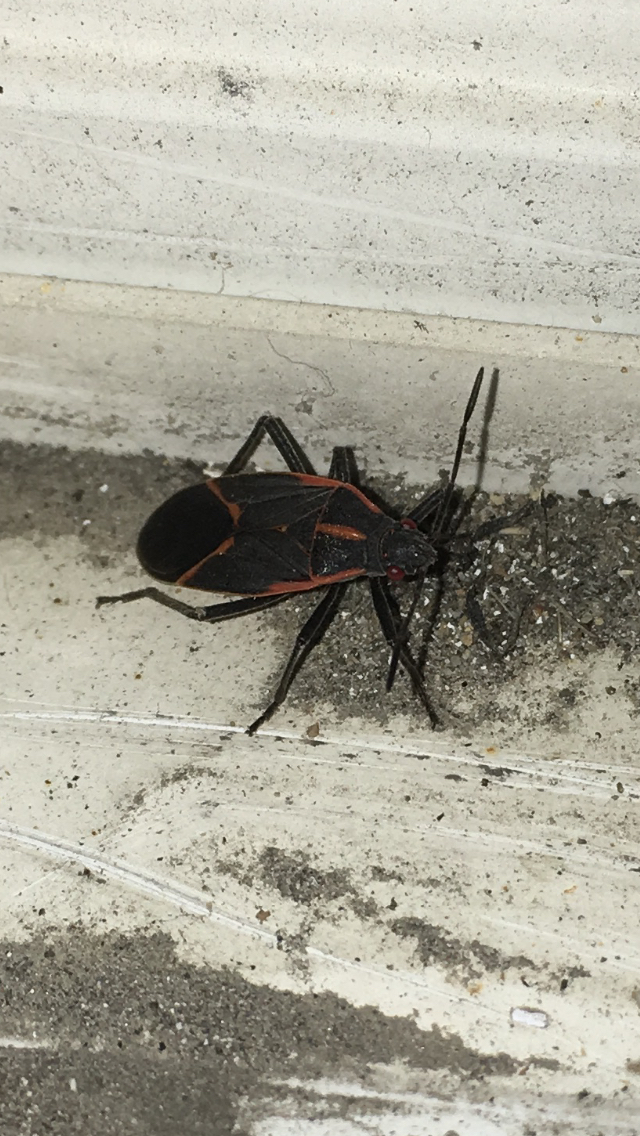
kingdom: Animalia
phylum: Arthropoda
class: Insecta
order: Hemiptera
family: Rhopalidae
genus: Boisea
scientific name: Boisea trivittata
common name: Boxelder bug
